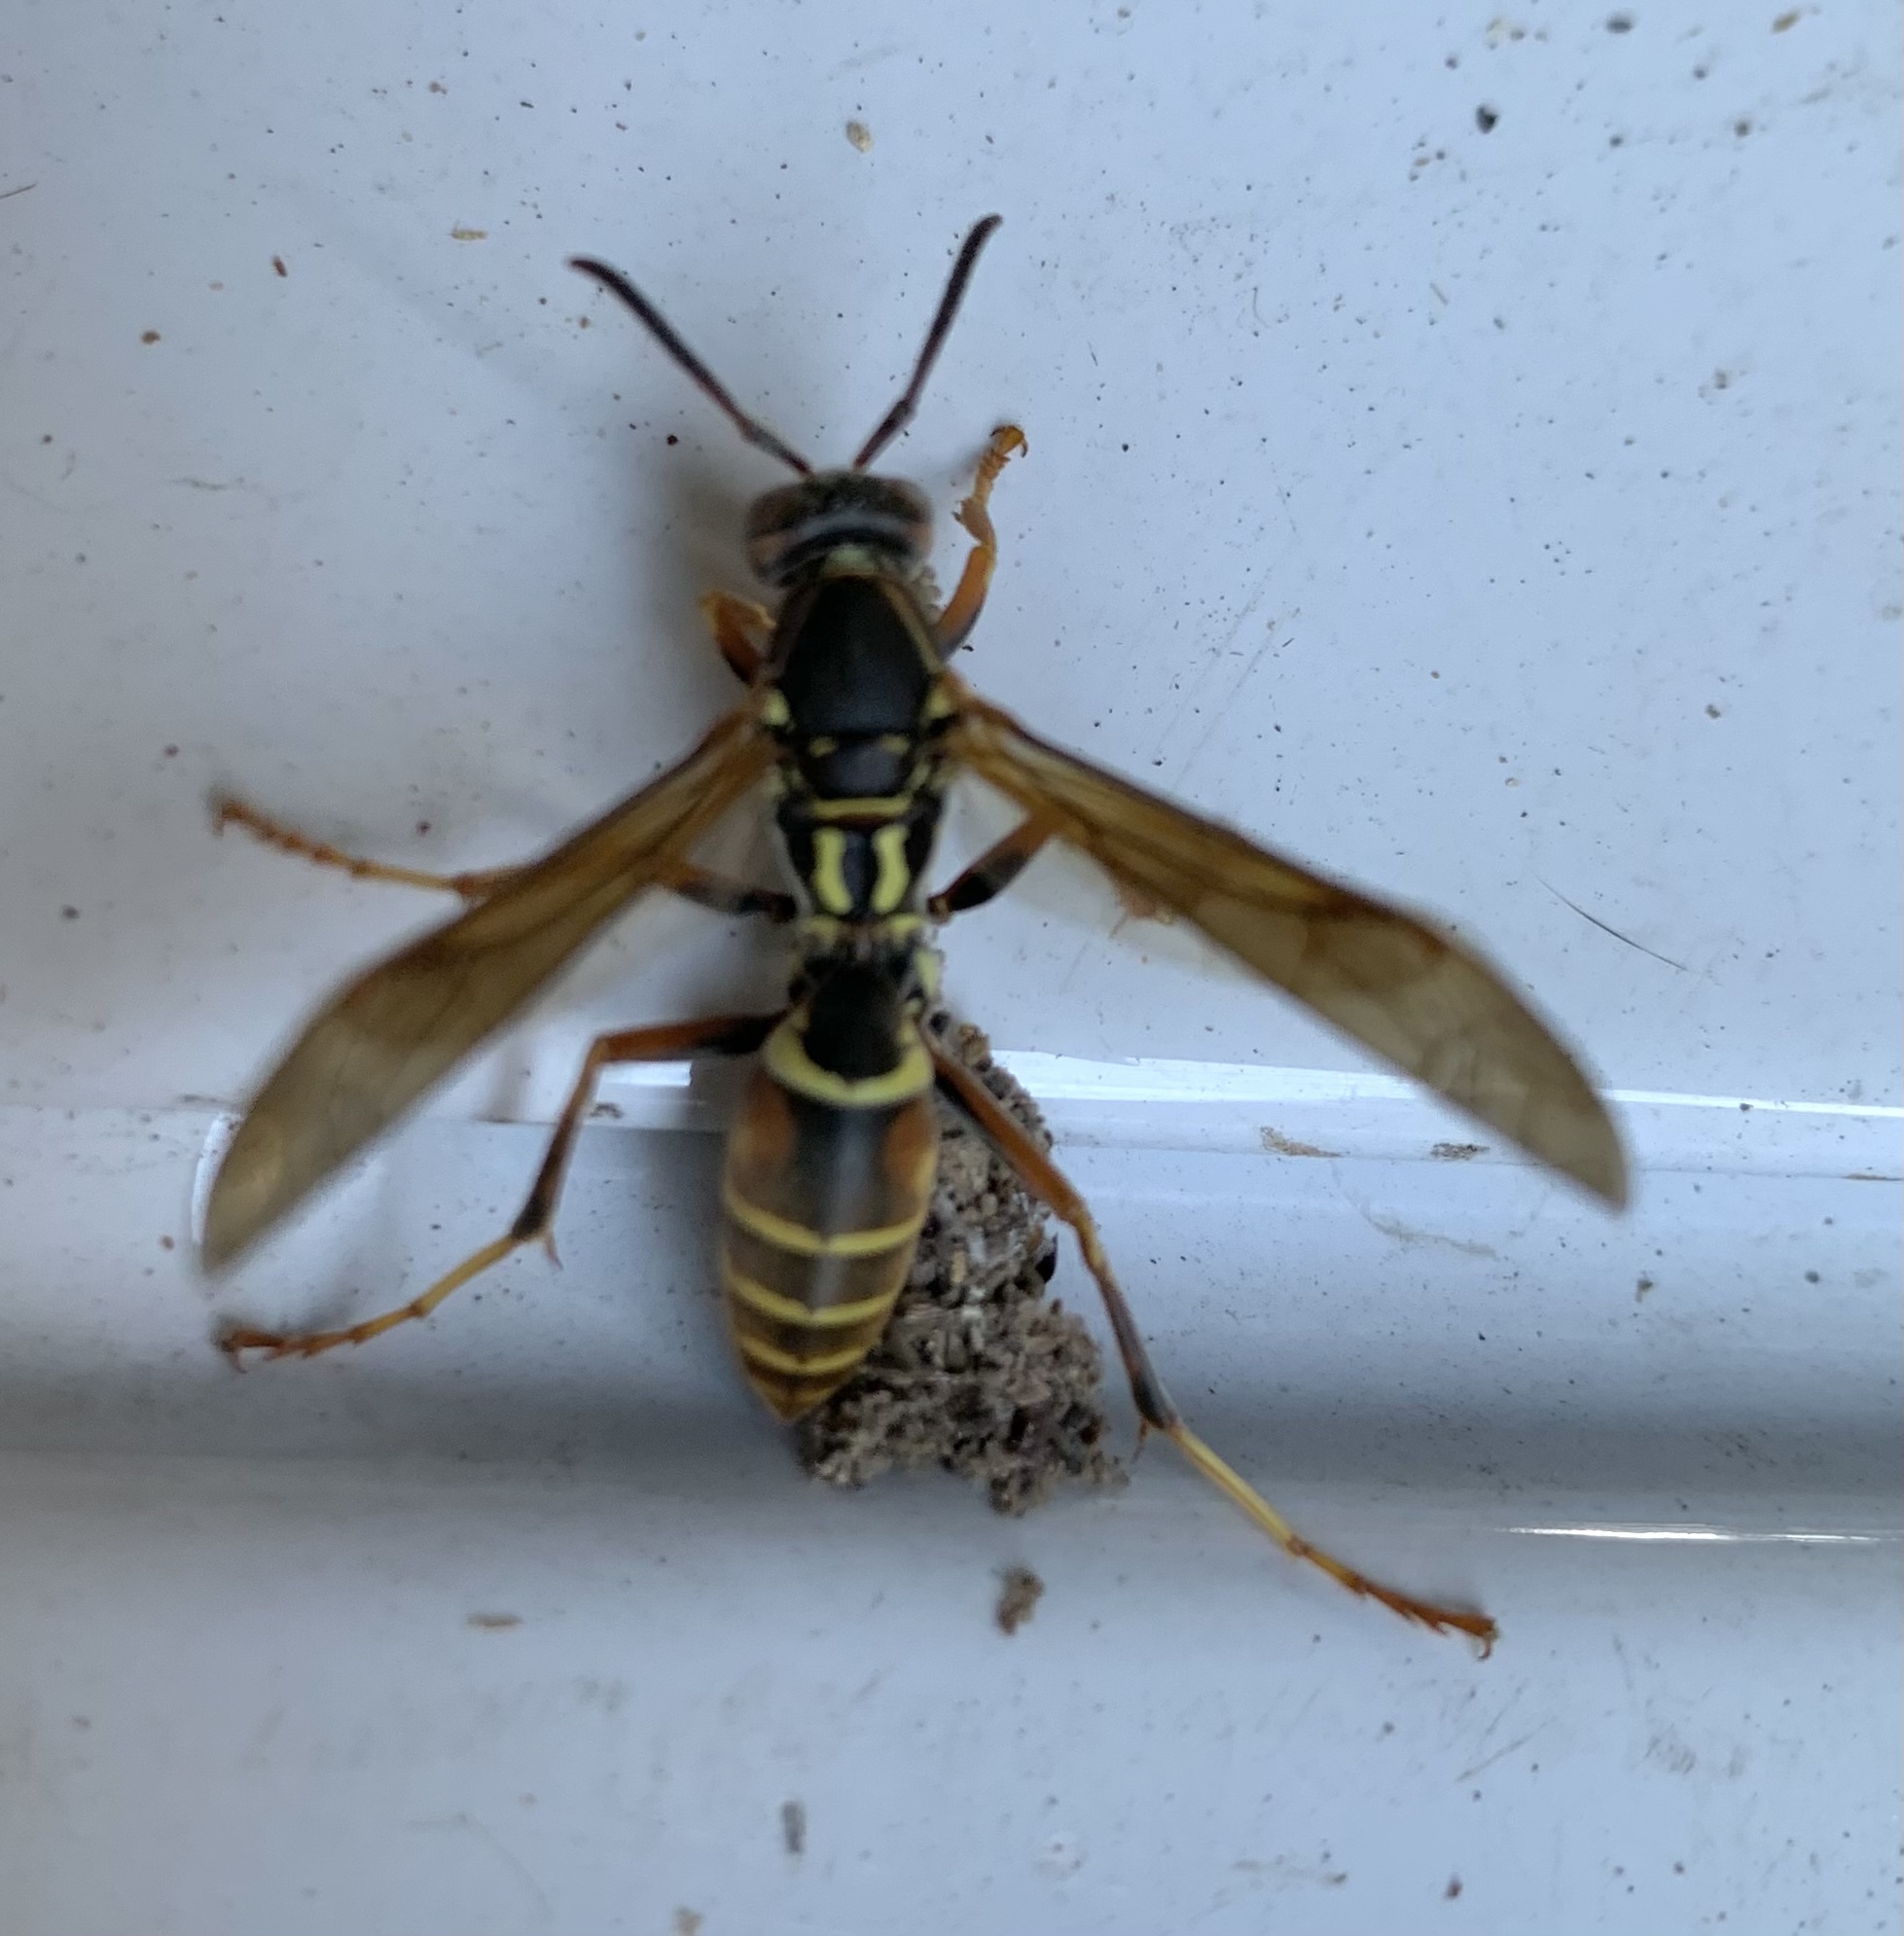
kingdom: Animalia
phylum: Arthropoda
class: Insecta
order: Hymenoptera
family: Eumenidae
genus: Polistes
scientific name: Polistes fuscatus
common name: Dark paper wasp
